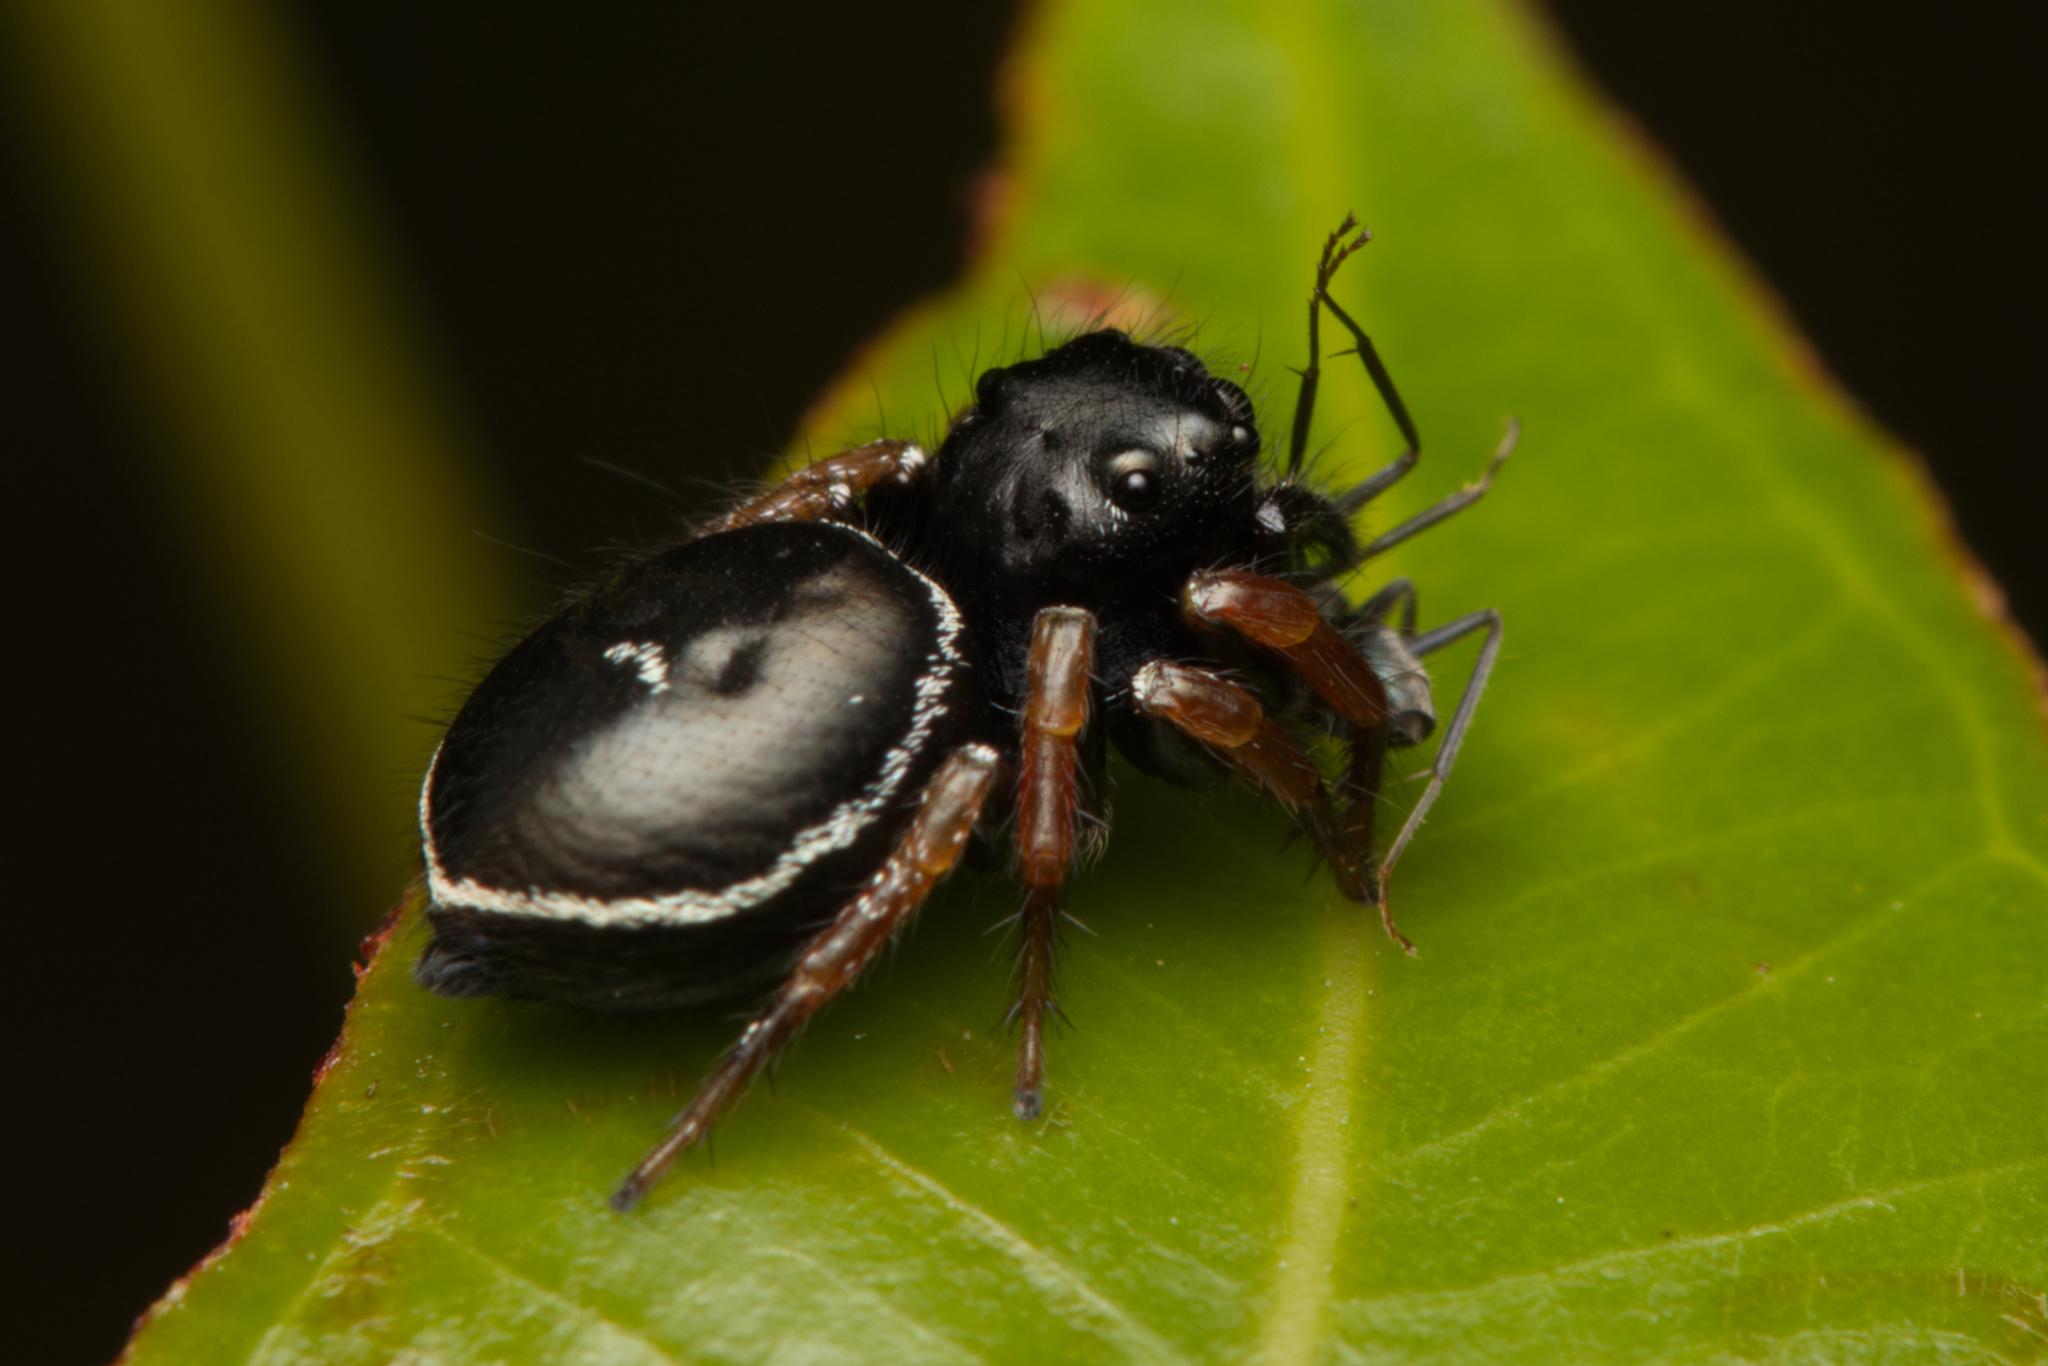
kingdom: Animalia
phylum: Arthropoda
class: Arachnida
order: Araneae
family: Salticidae
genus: Zenodorus
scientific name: Zenodorus orbiculatus
